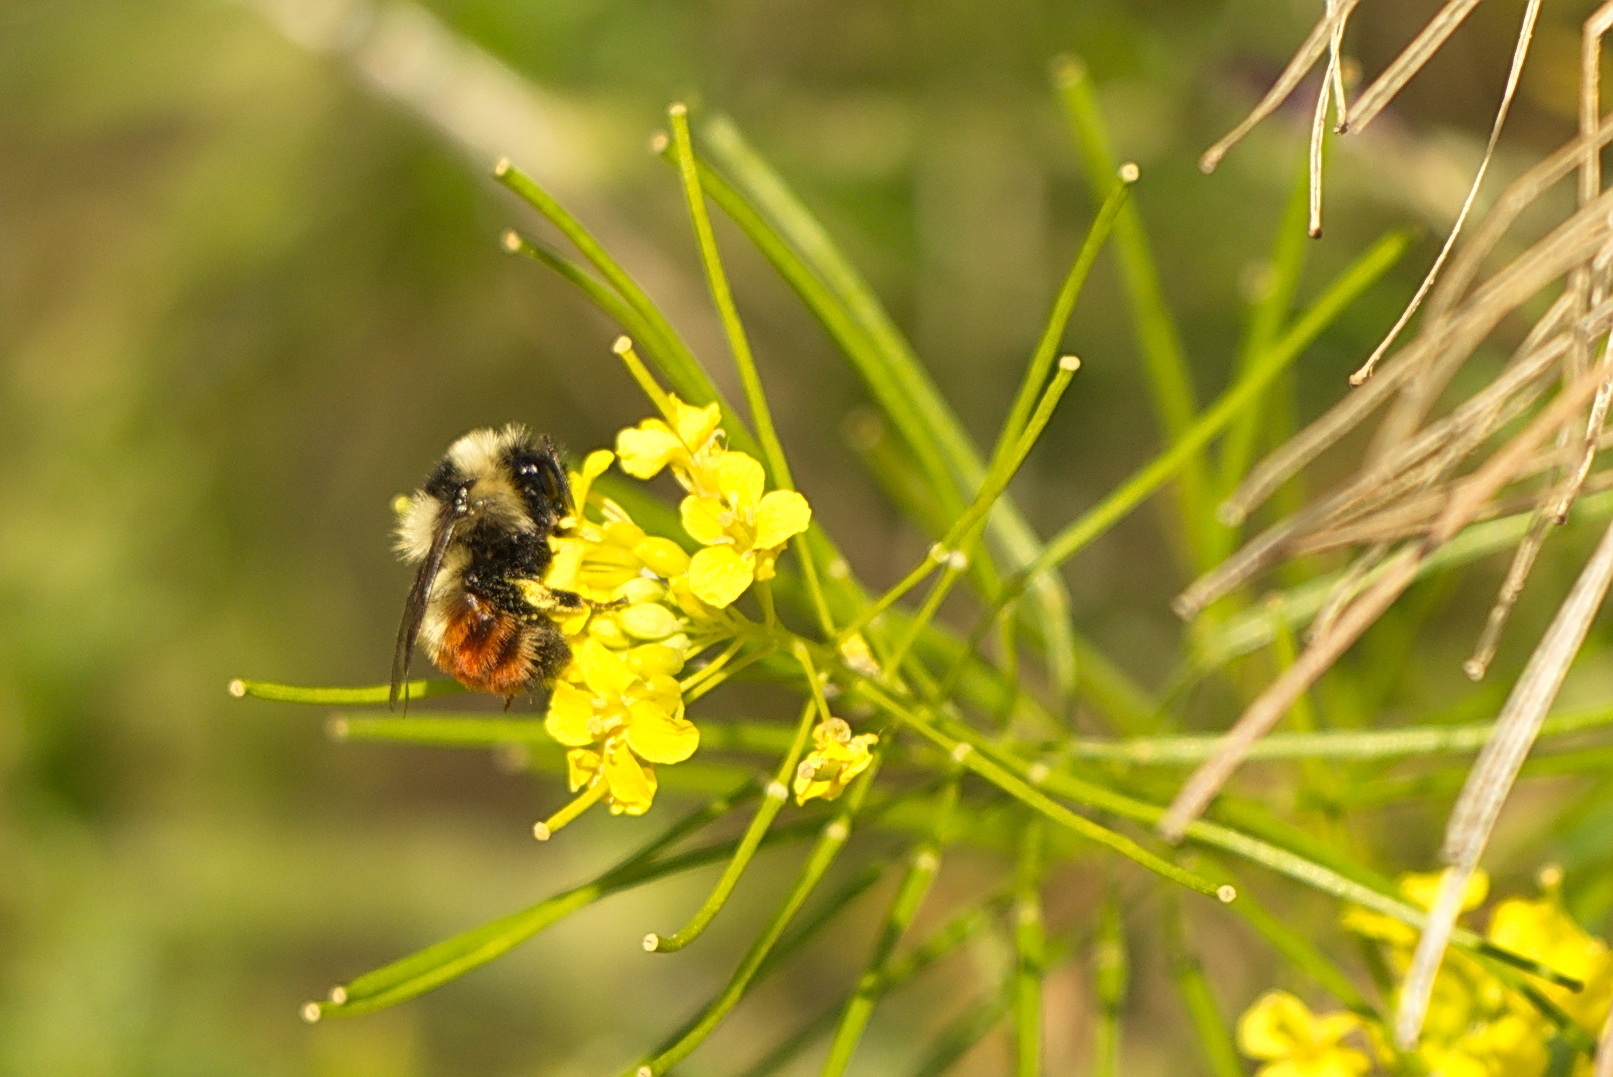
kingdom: Animalia
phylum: Arthropoda
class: Insecta
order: Hymenoptera
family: Apidae
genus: Bombus
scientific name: Bombus rufocinctus
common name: Red-belted bumble bee
